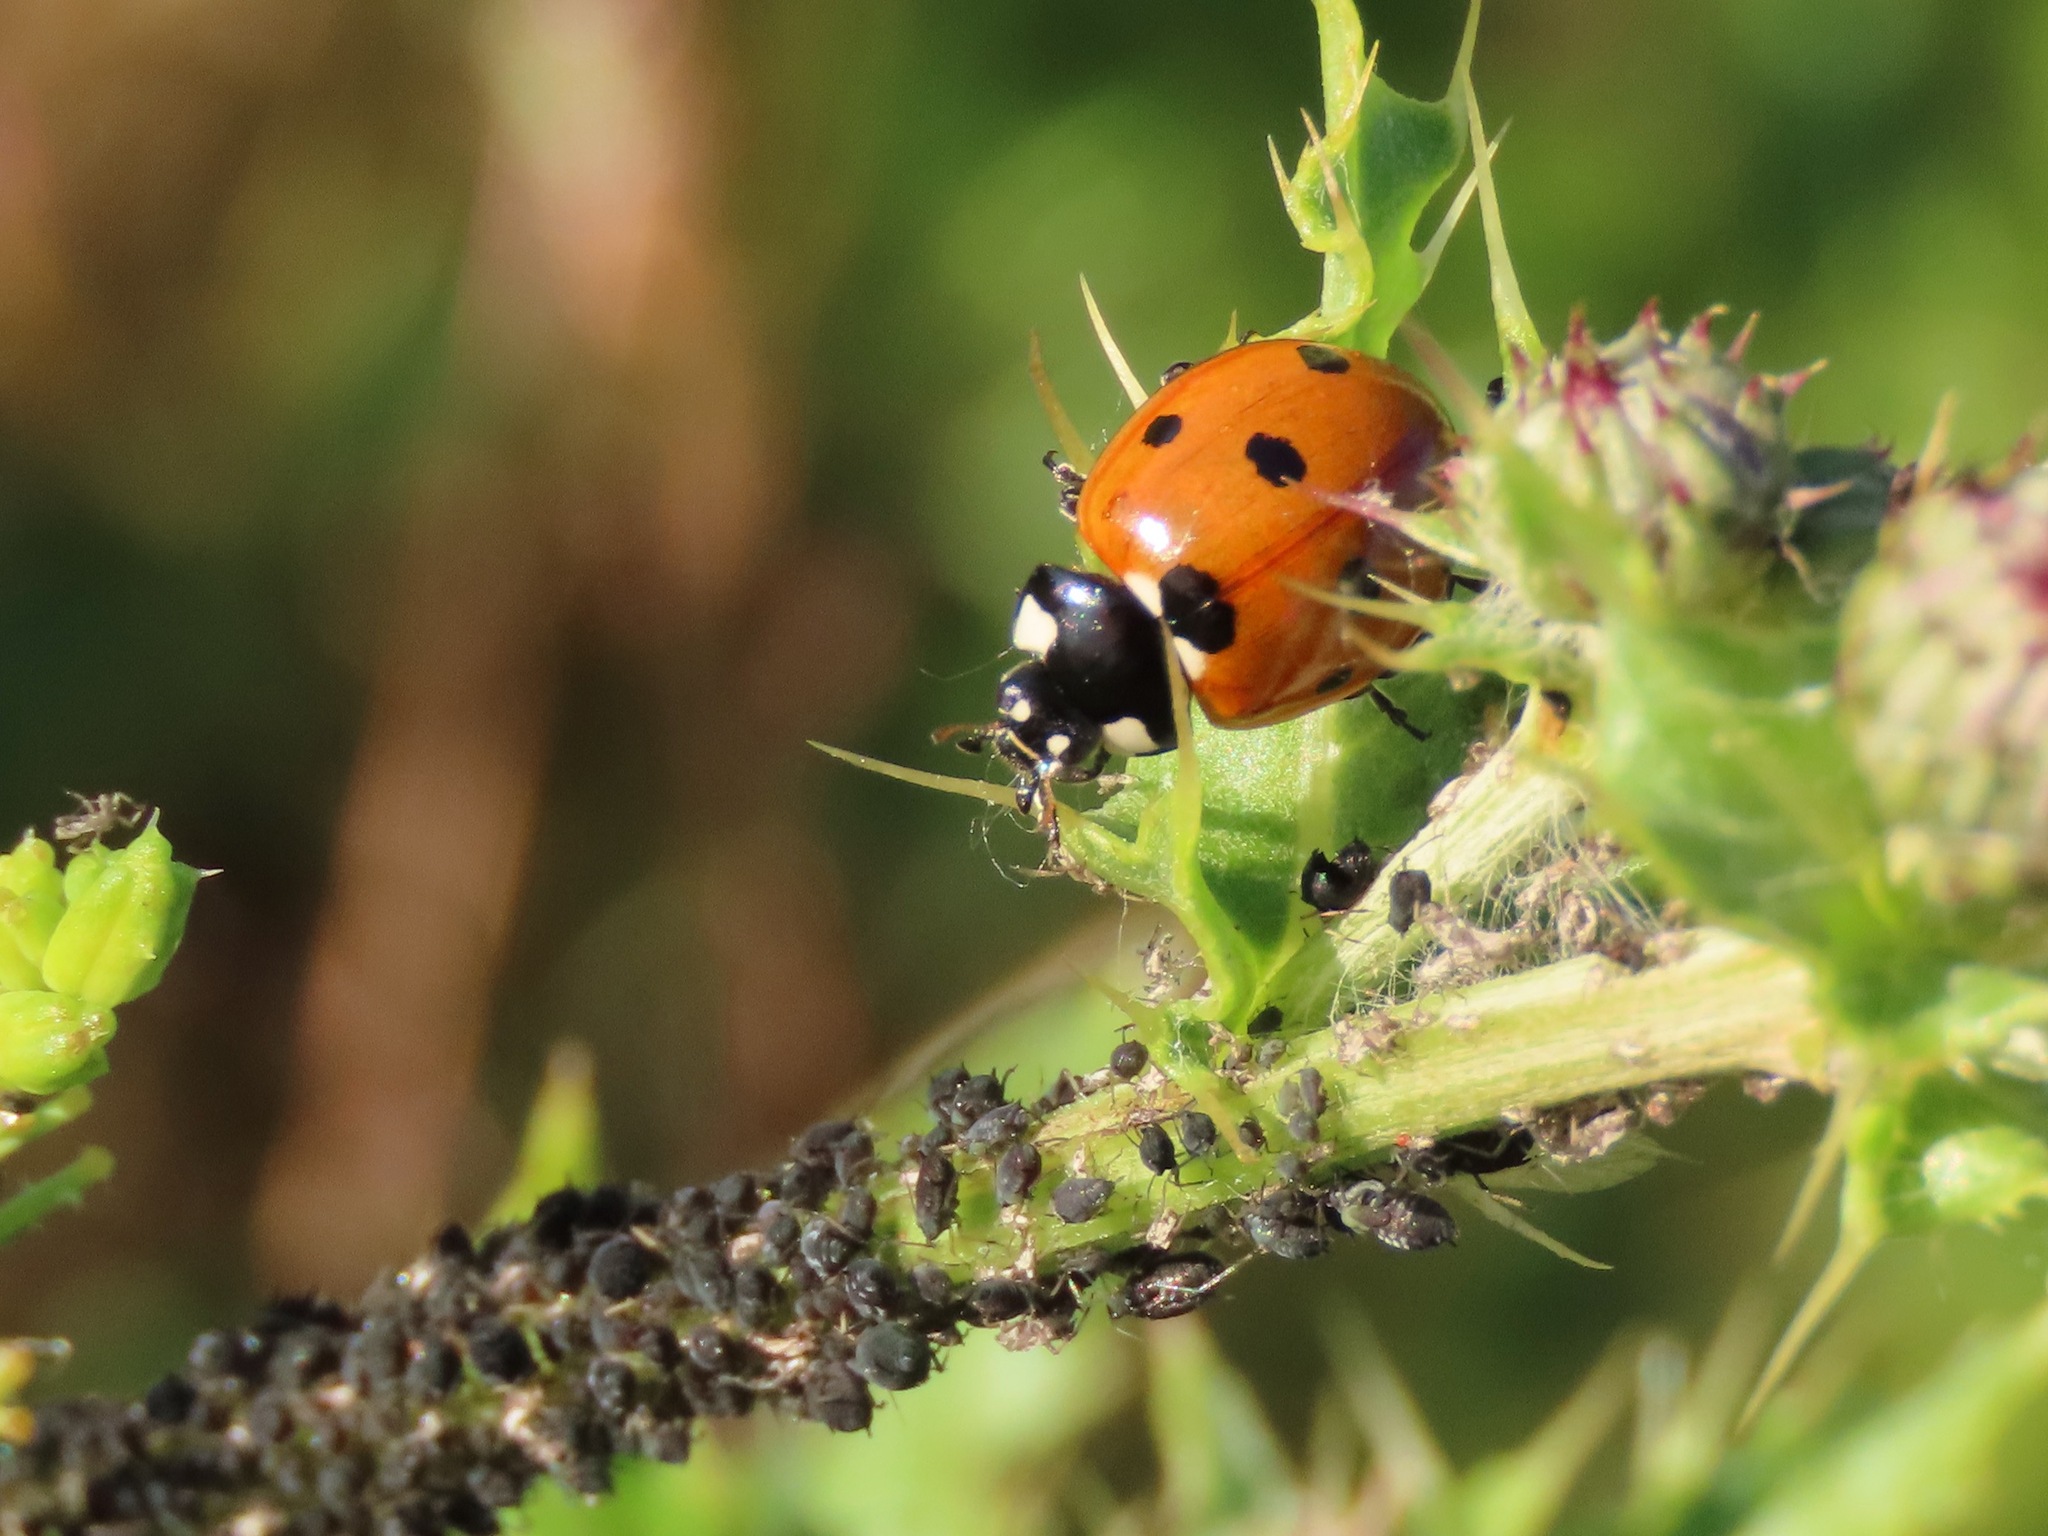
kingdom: Animalia
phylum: Arthropoda
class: Insecta
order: Coleoptera
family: Coccinellidae
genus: Coccinella
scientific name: Coccinella septempunctata
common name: Sevenspotted lady beetle
